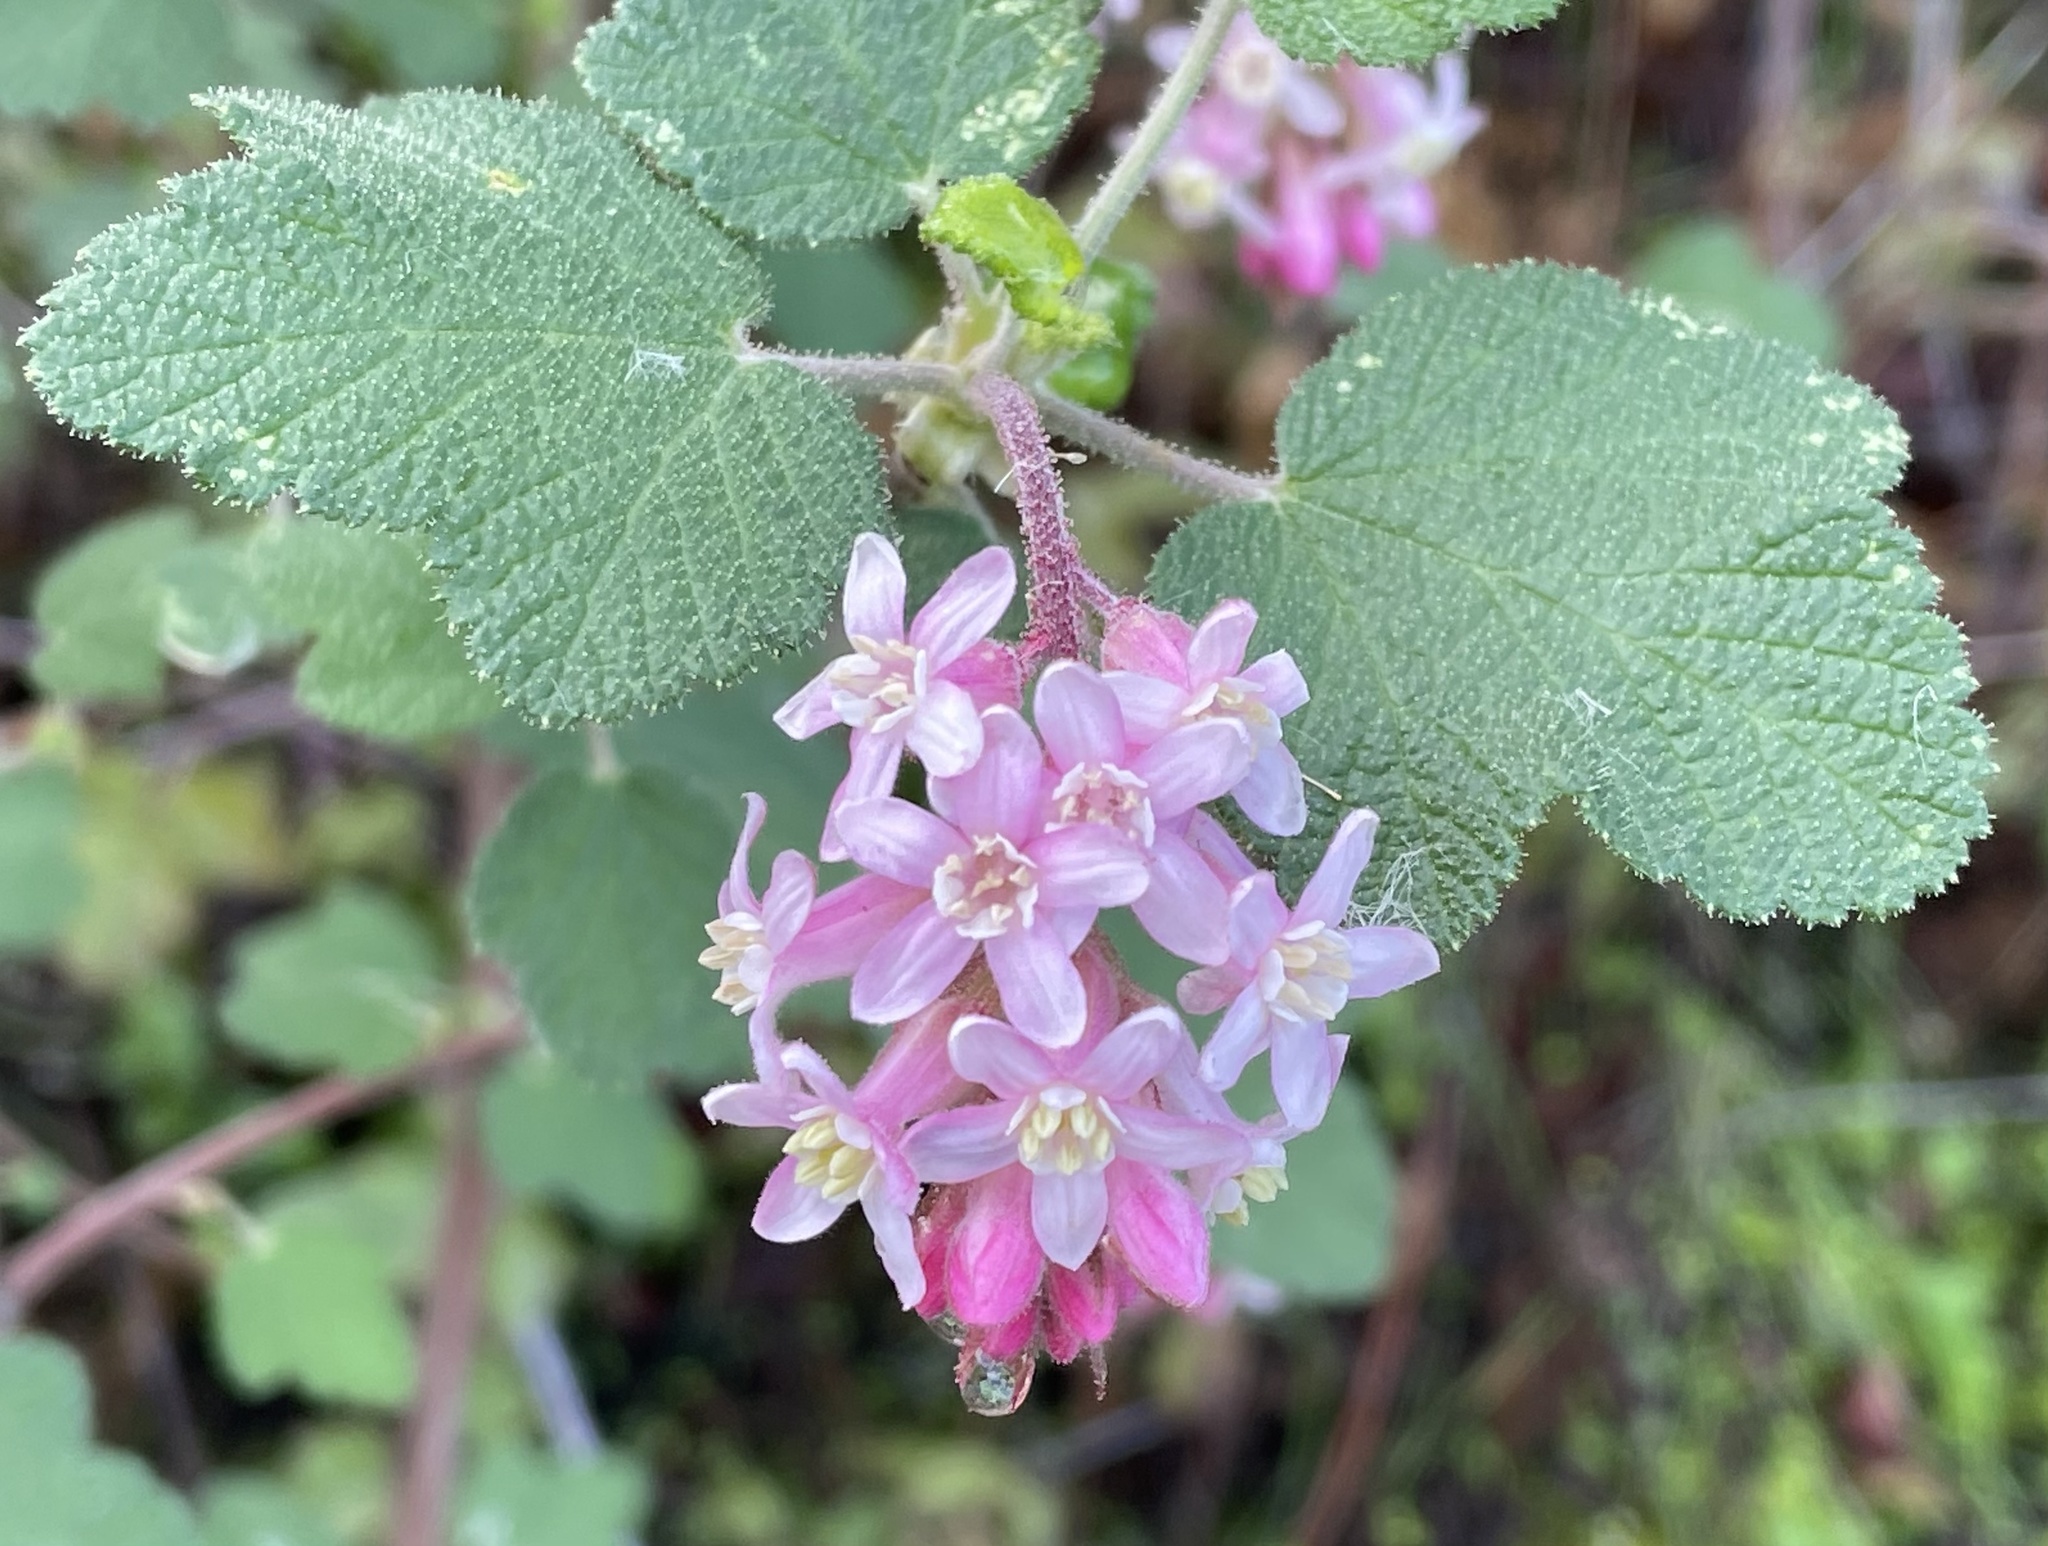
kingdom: Plantae
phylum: Tracheophyta
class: Magnoliopsida
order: Saxifragales
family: Grossulariaceae
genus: Ribes
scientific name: Ribes malvaceum
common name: Chaparral currant
